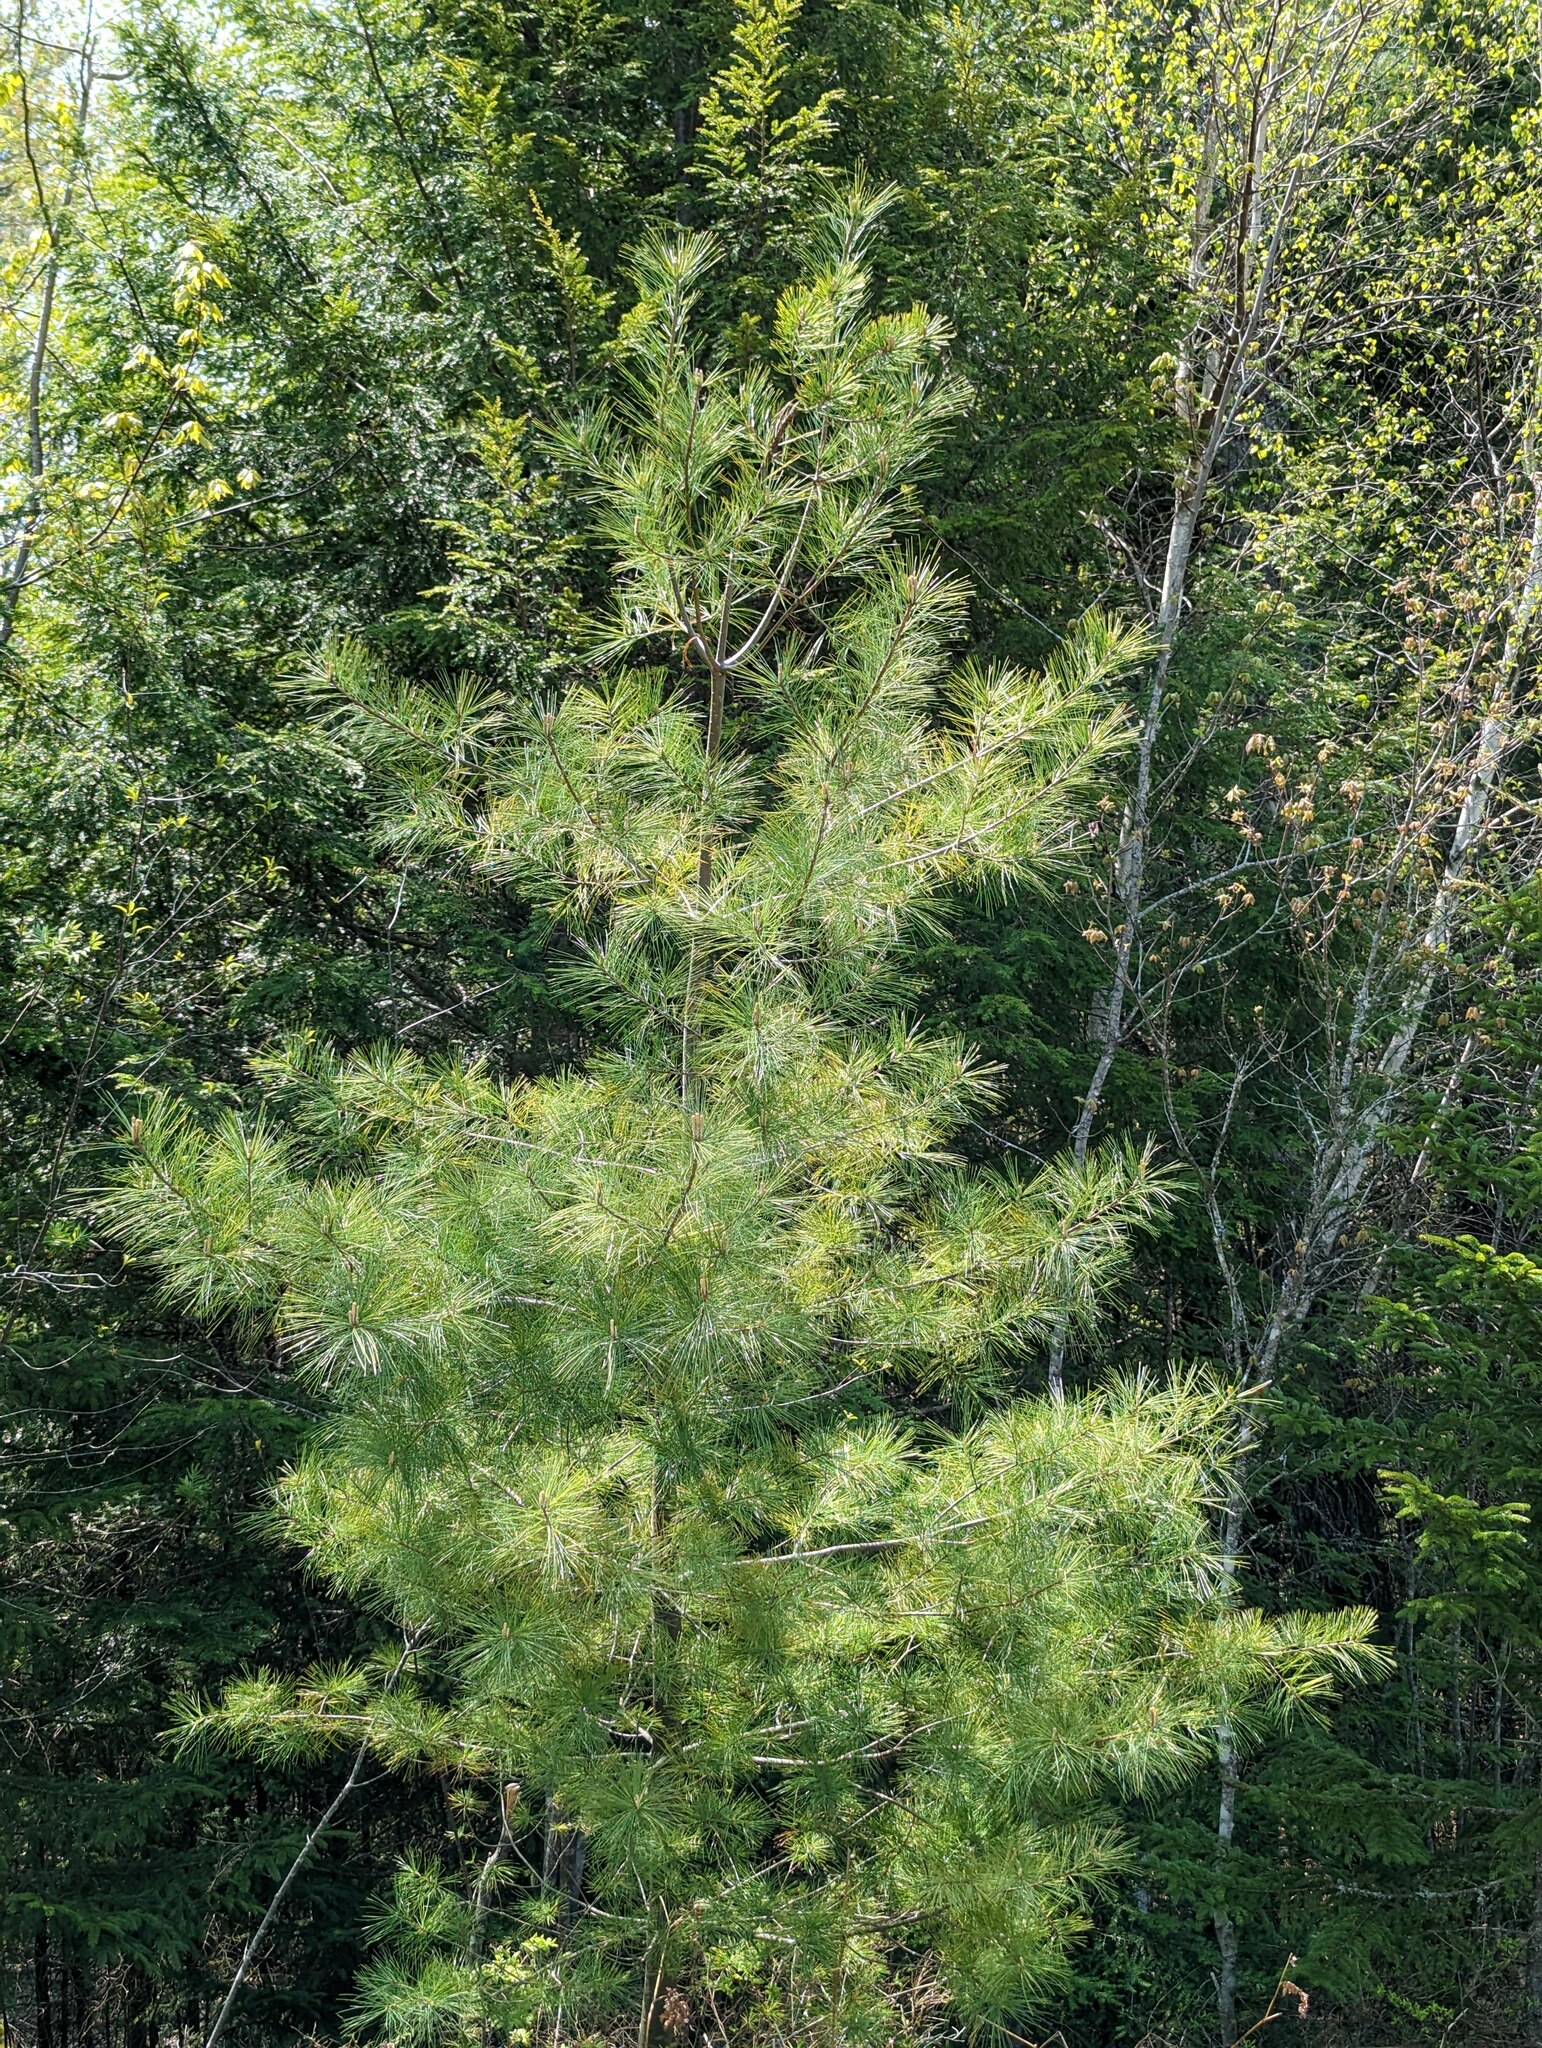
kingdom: Plantae
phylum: Tracheophyta
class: Pinopsida
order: Pinales
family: Pinaceae
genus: Pinus
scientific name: Pinus strobus
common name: Weymouth pine
